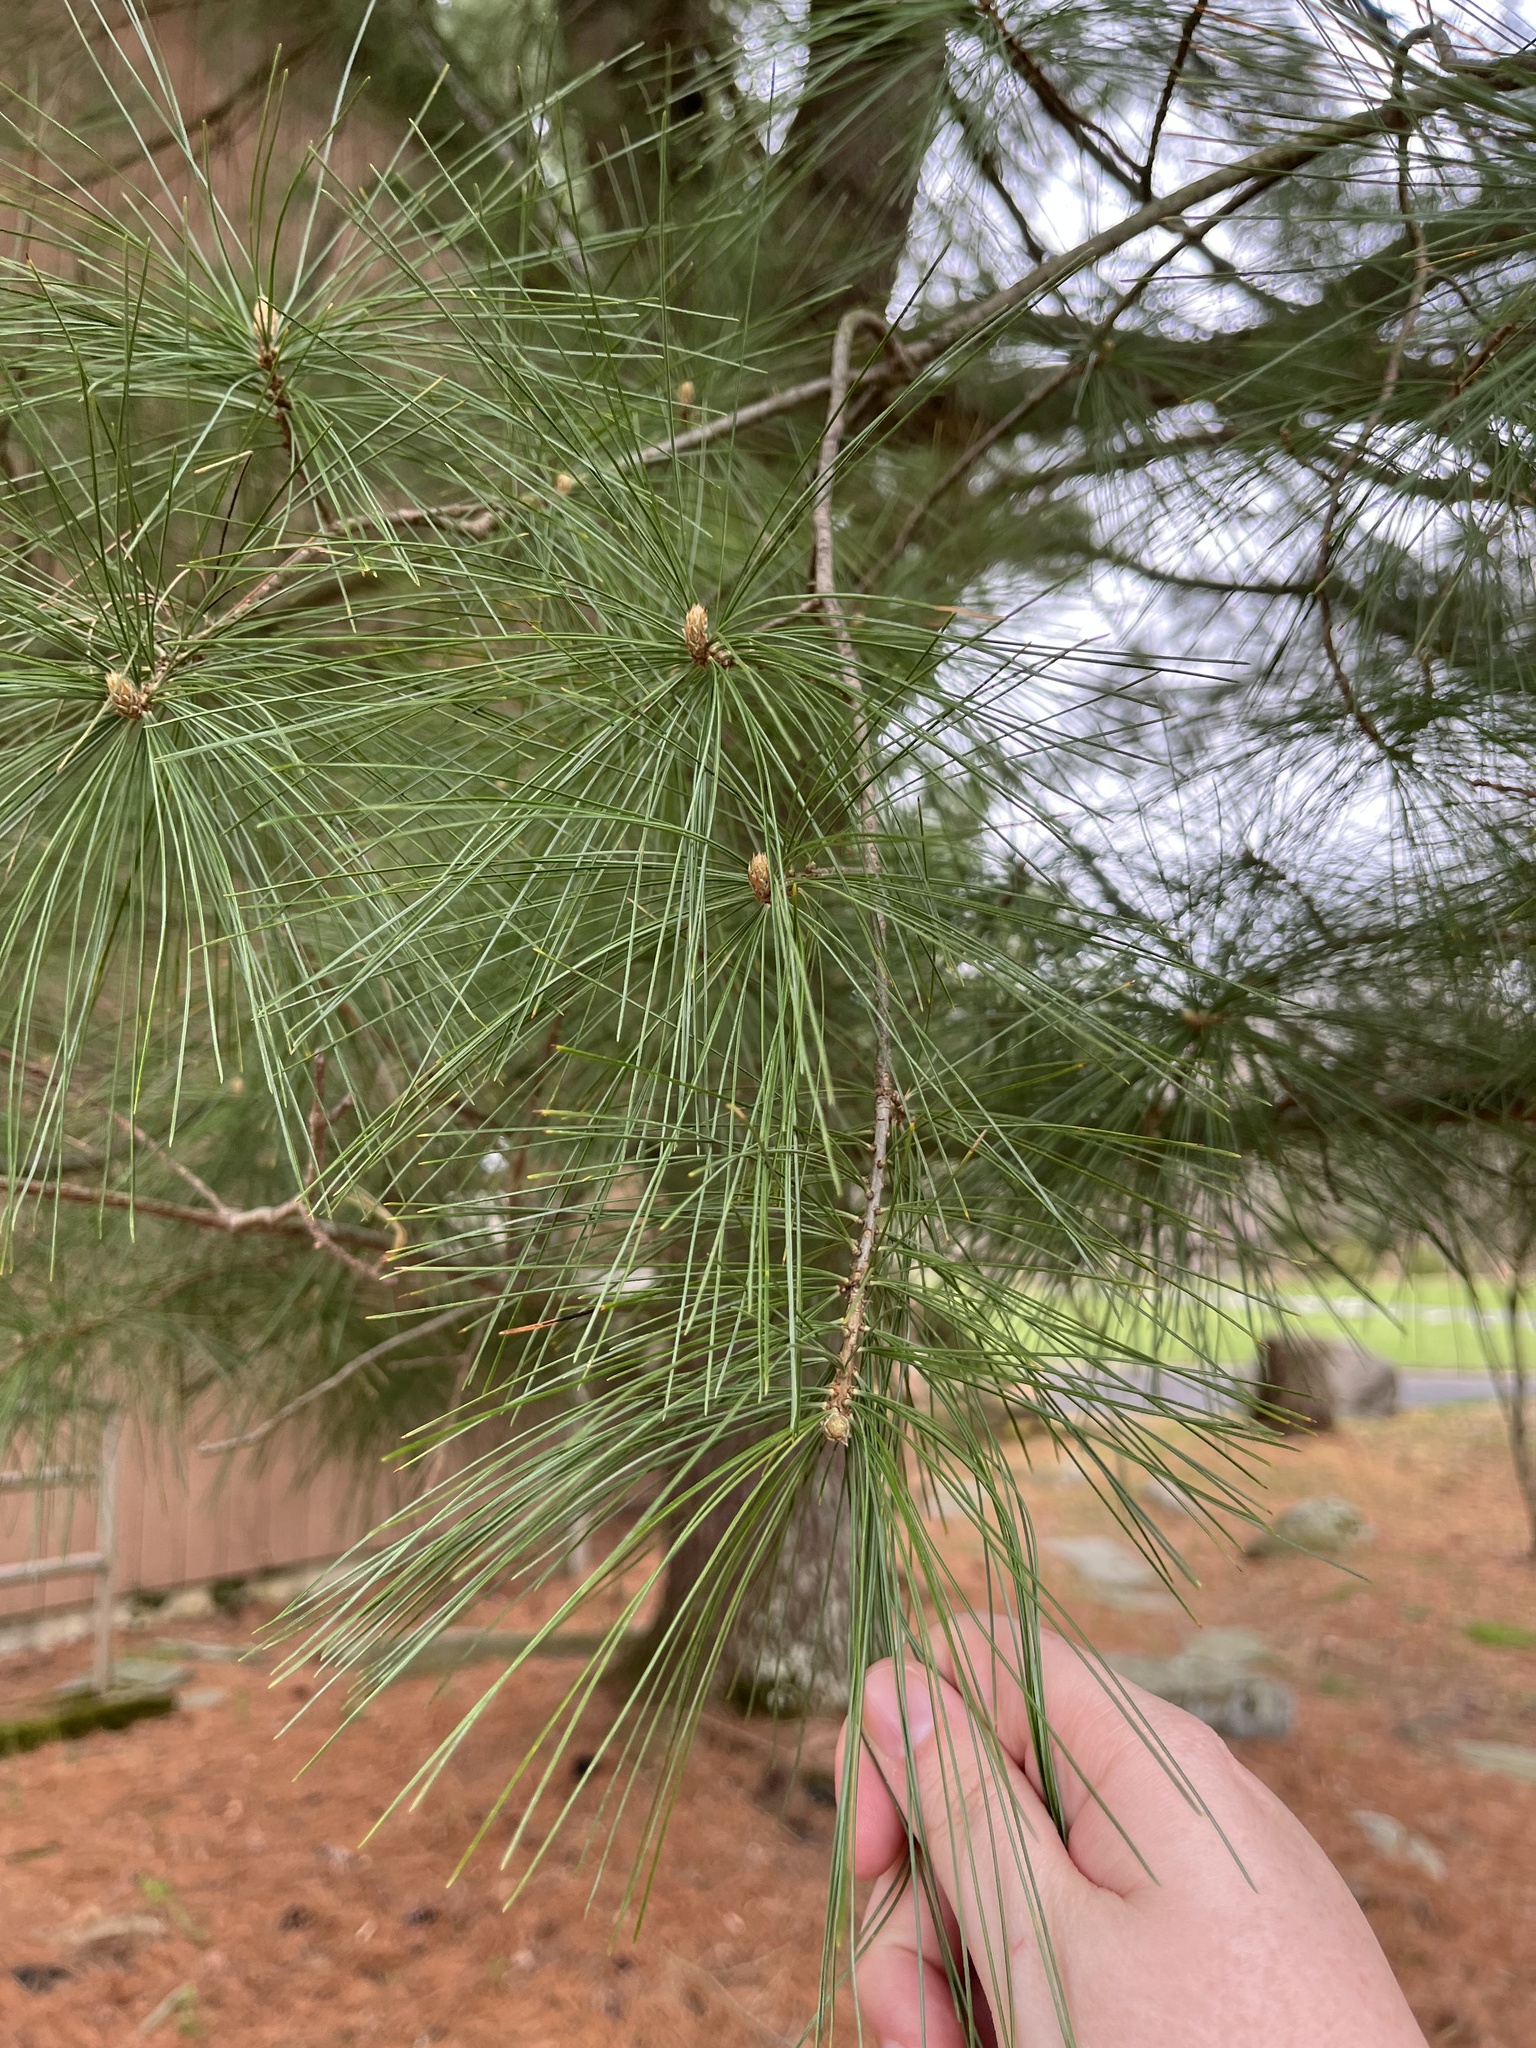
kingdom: Plantae
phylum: Tracheophyta
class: Pinopsida
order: Pinales
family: Pinaceae
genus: Pinus
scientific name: Pinus strobus
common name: Weymouth pine
